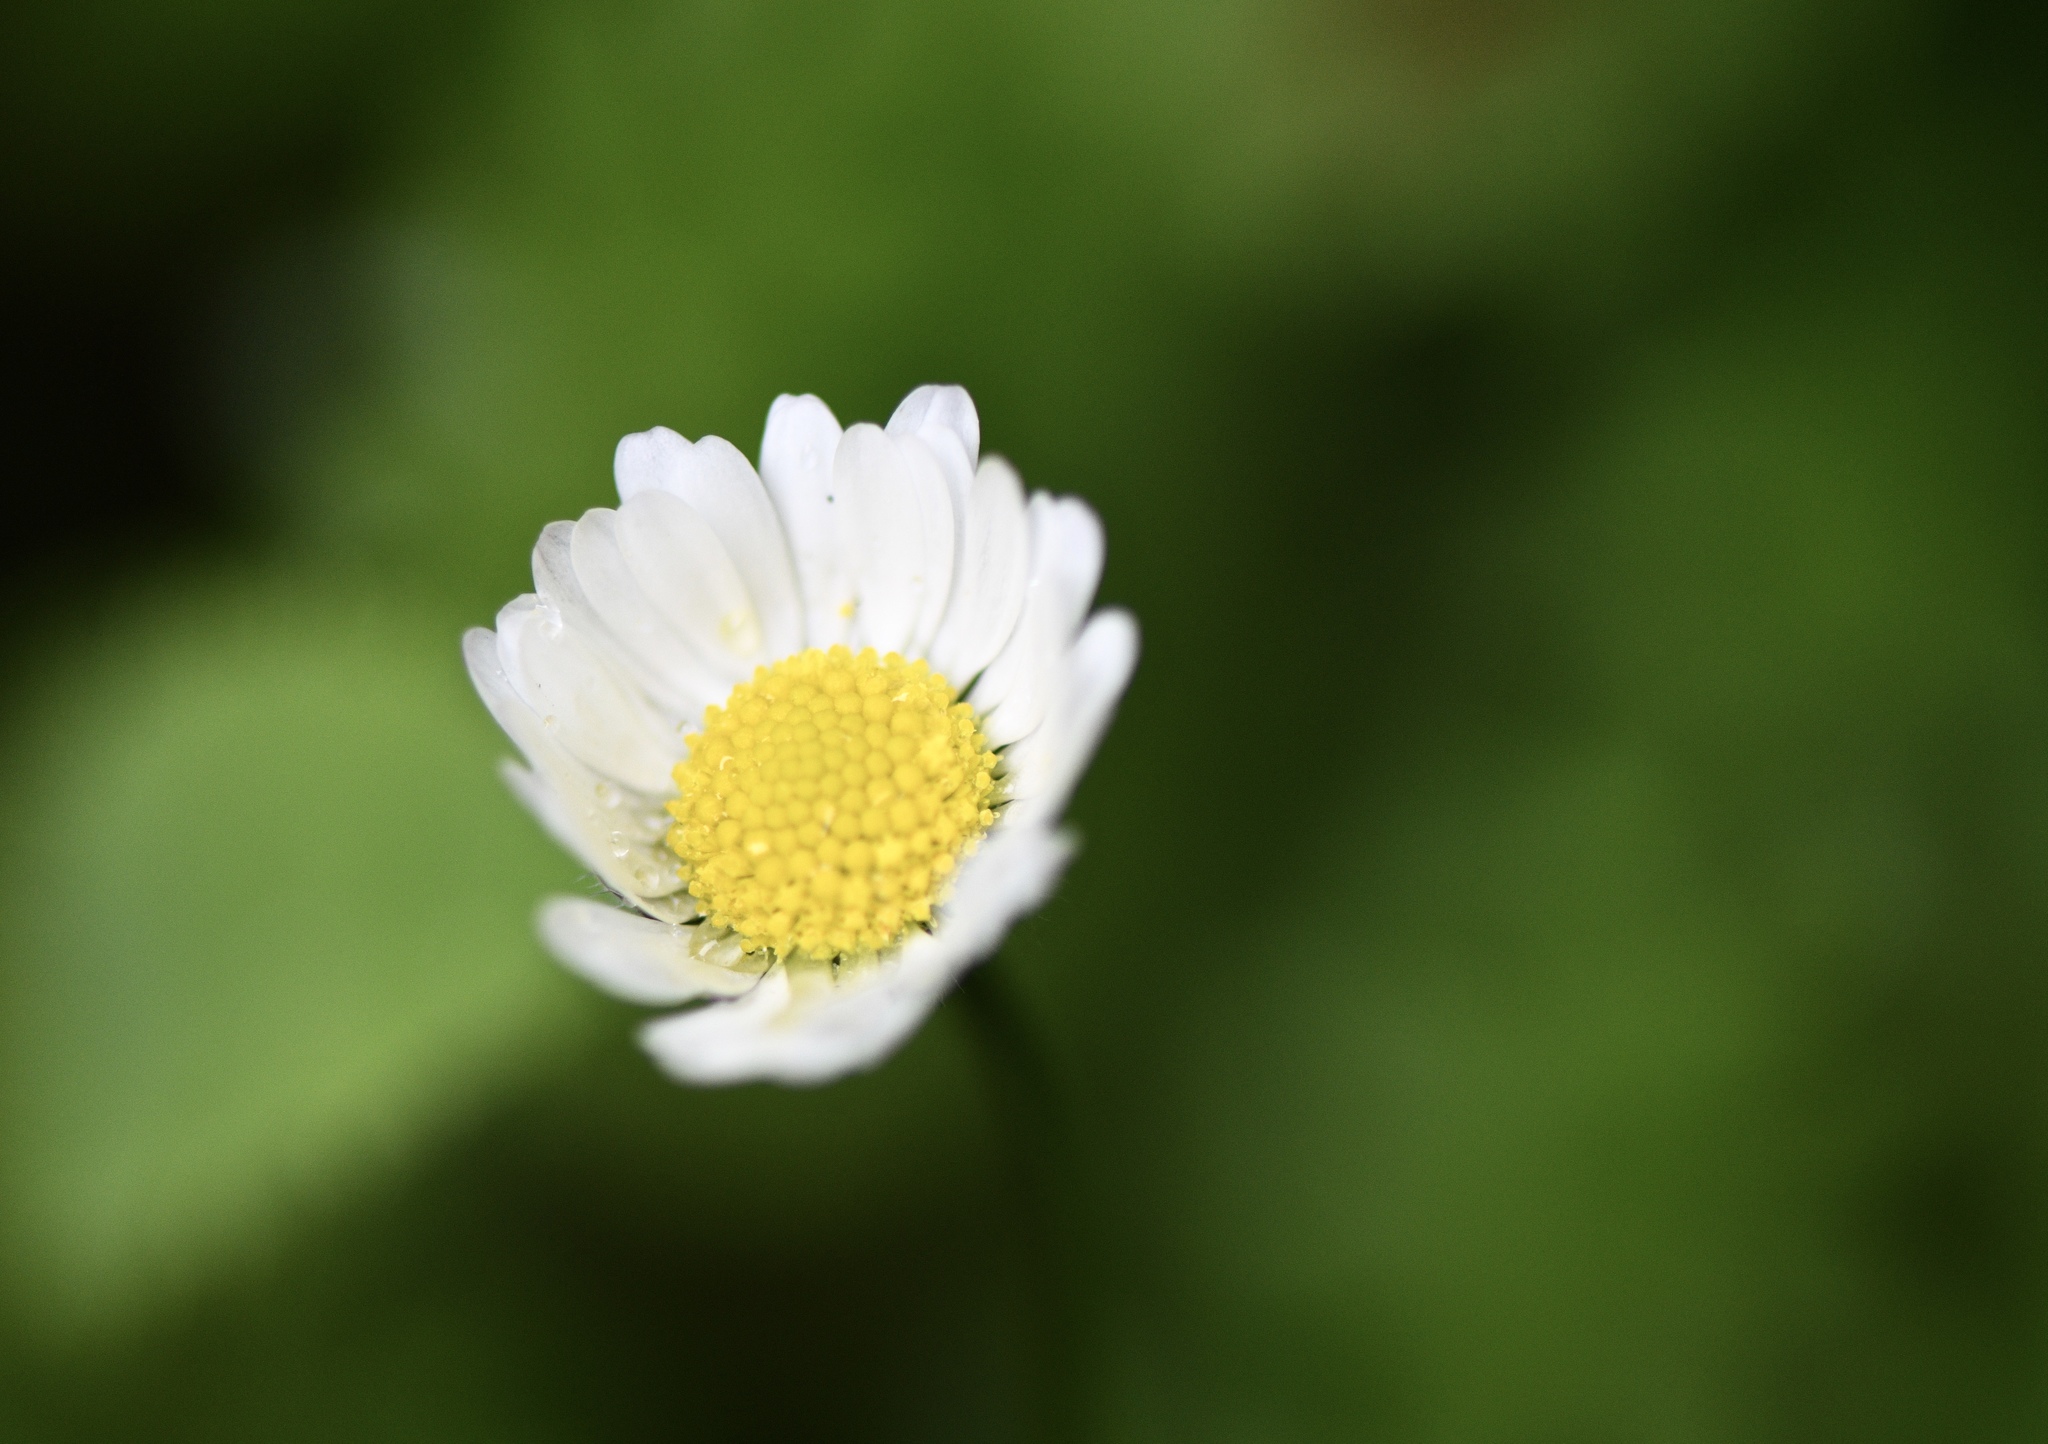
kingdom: Plantae
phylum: Tracheophyta
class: Magnoliopsida
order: Asterales
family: Asteraceae
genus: Bellis
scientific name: Bellis perennis
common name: Lawndaisy
